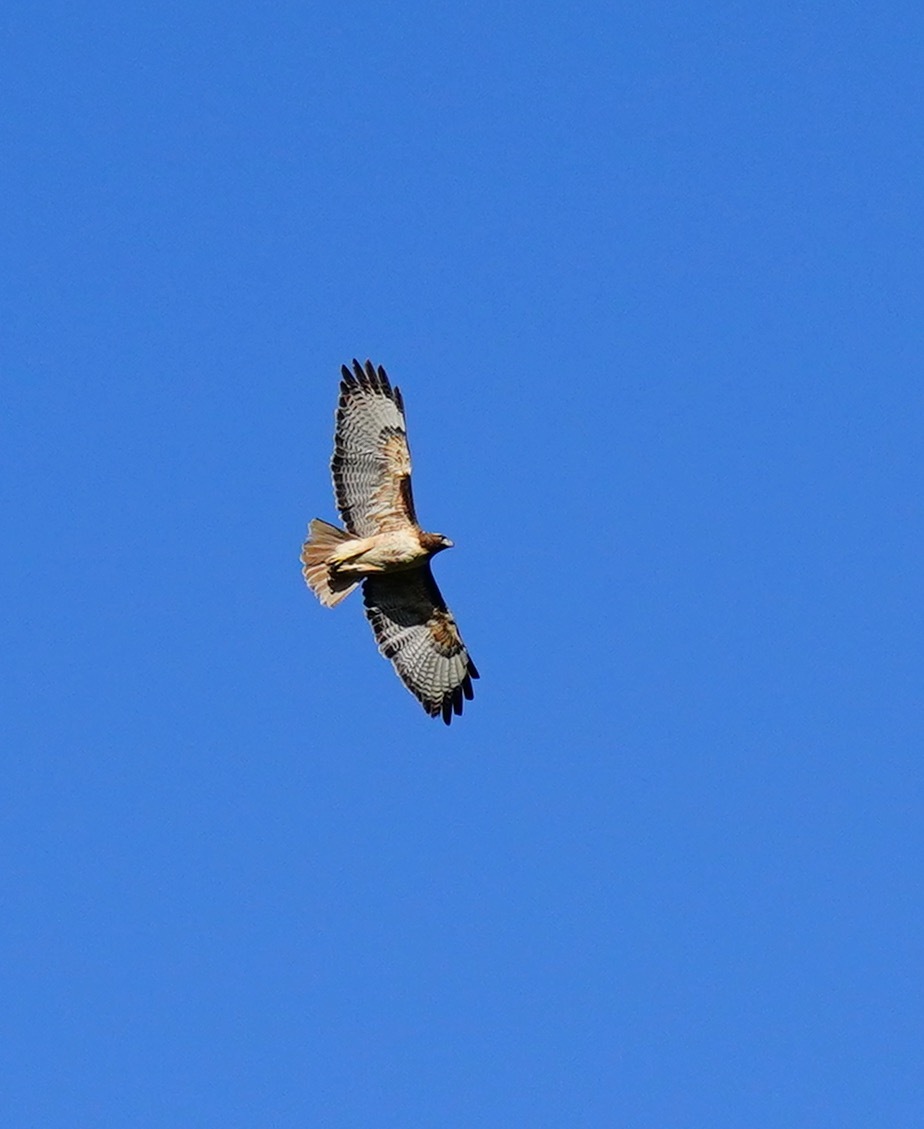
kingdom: Animalia
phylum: Chordata
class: Aves
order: Accipitriformes
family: Accipitridae
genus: Buteo
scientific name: Buteo jamaicensis
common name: Red-tailed hawk
